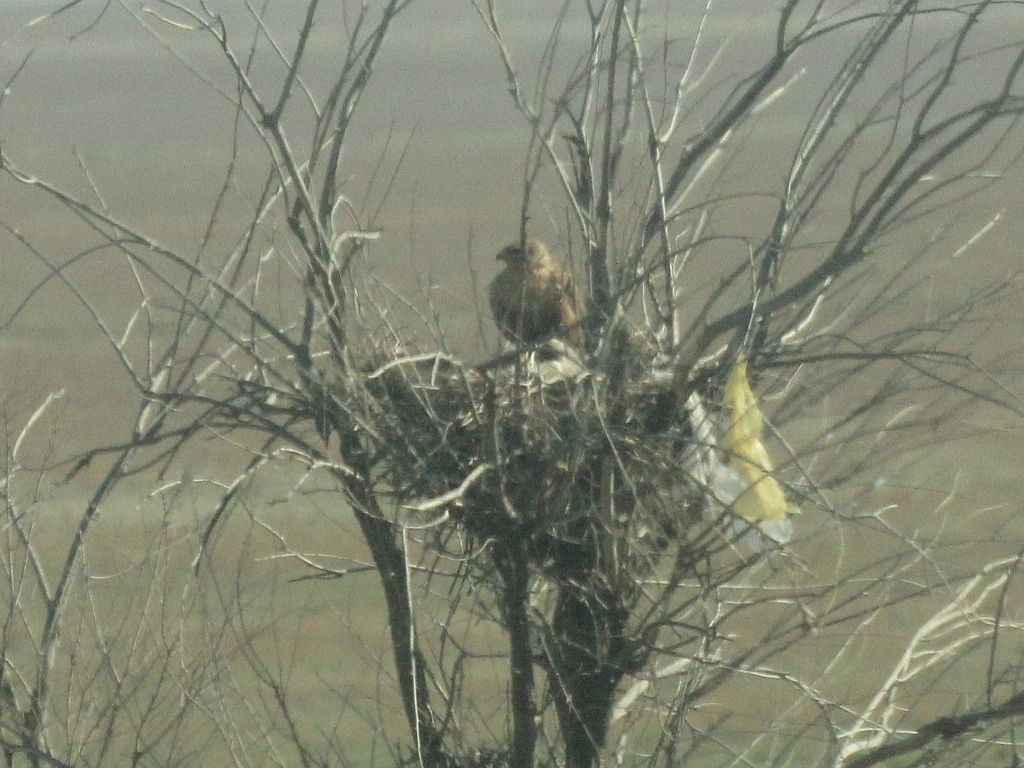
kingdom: Animalia
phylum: Chordata
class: Aves
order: Accipitriformes
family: Accipitridae
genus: Buteo
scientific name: Buteo rufinus
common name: Long-legged buzzard
